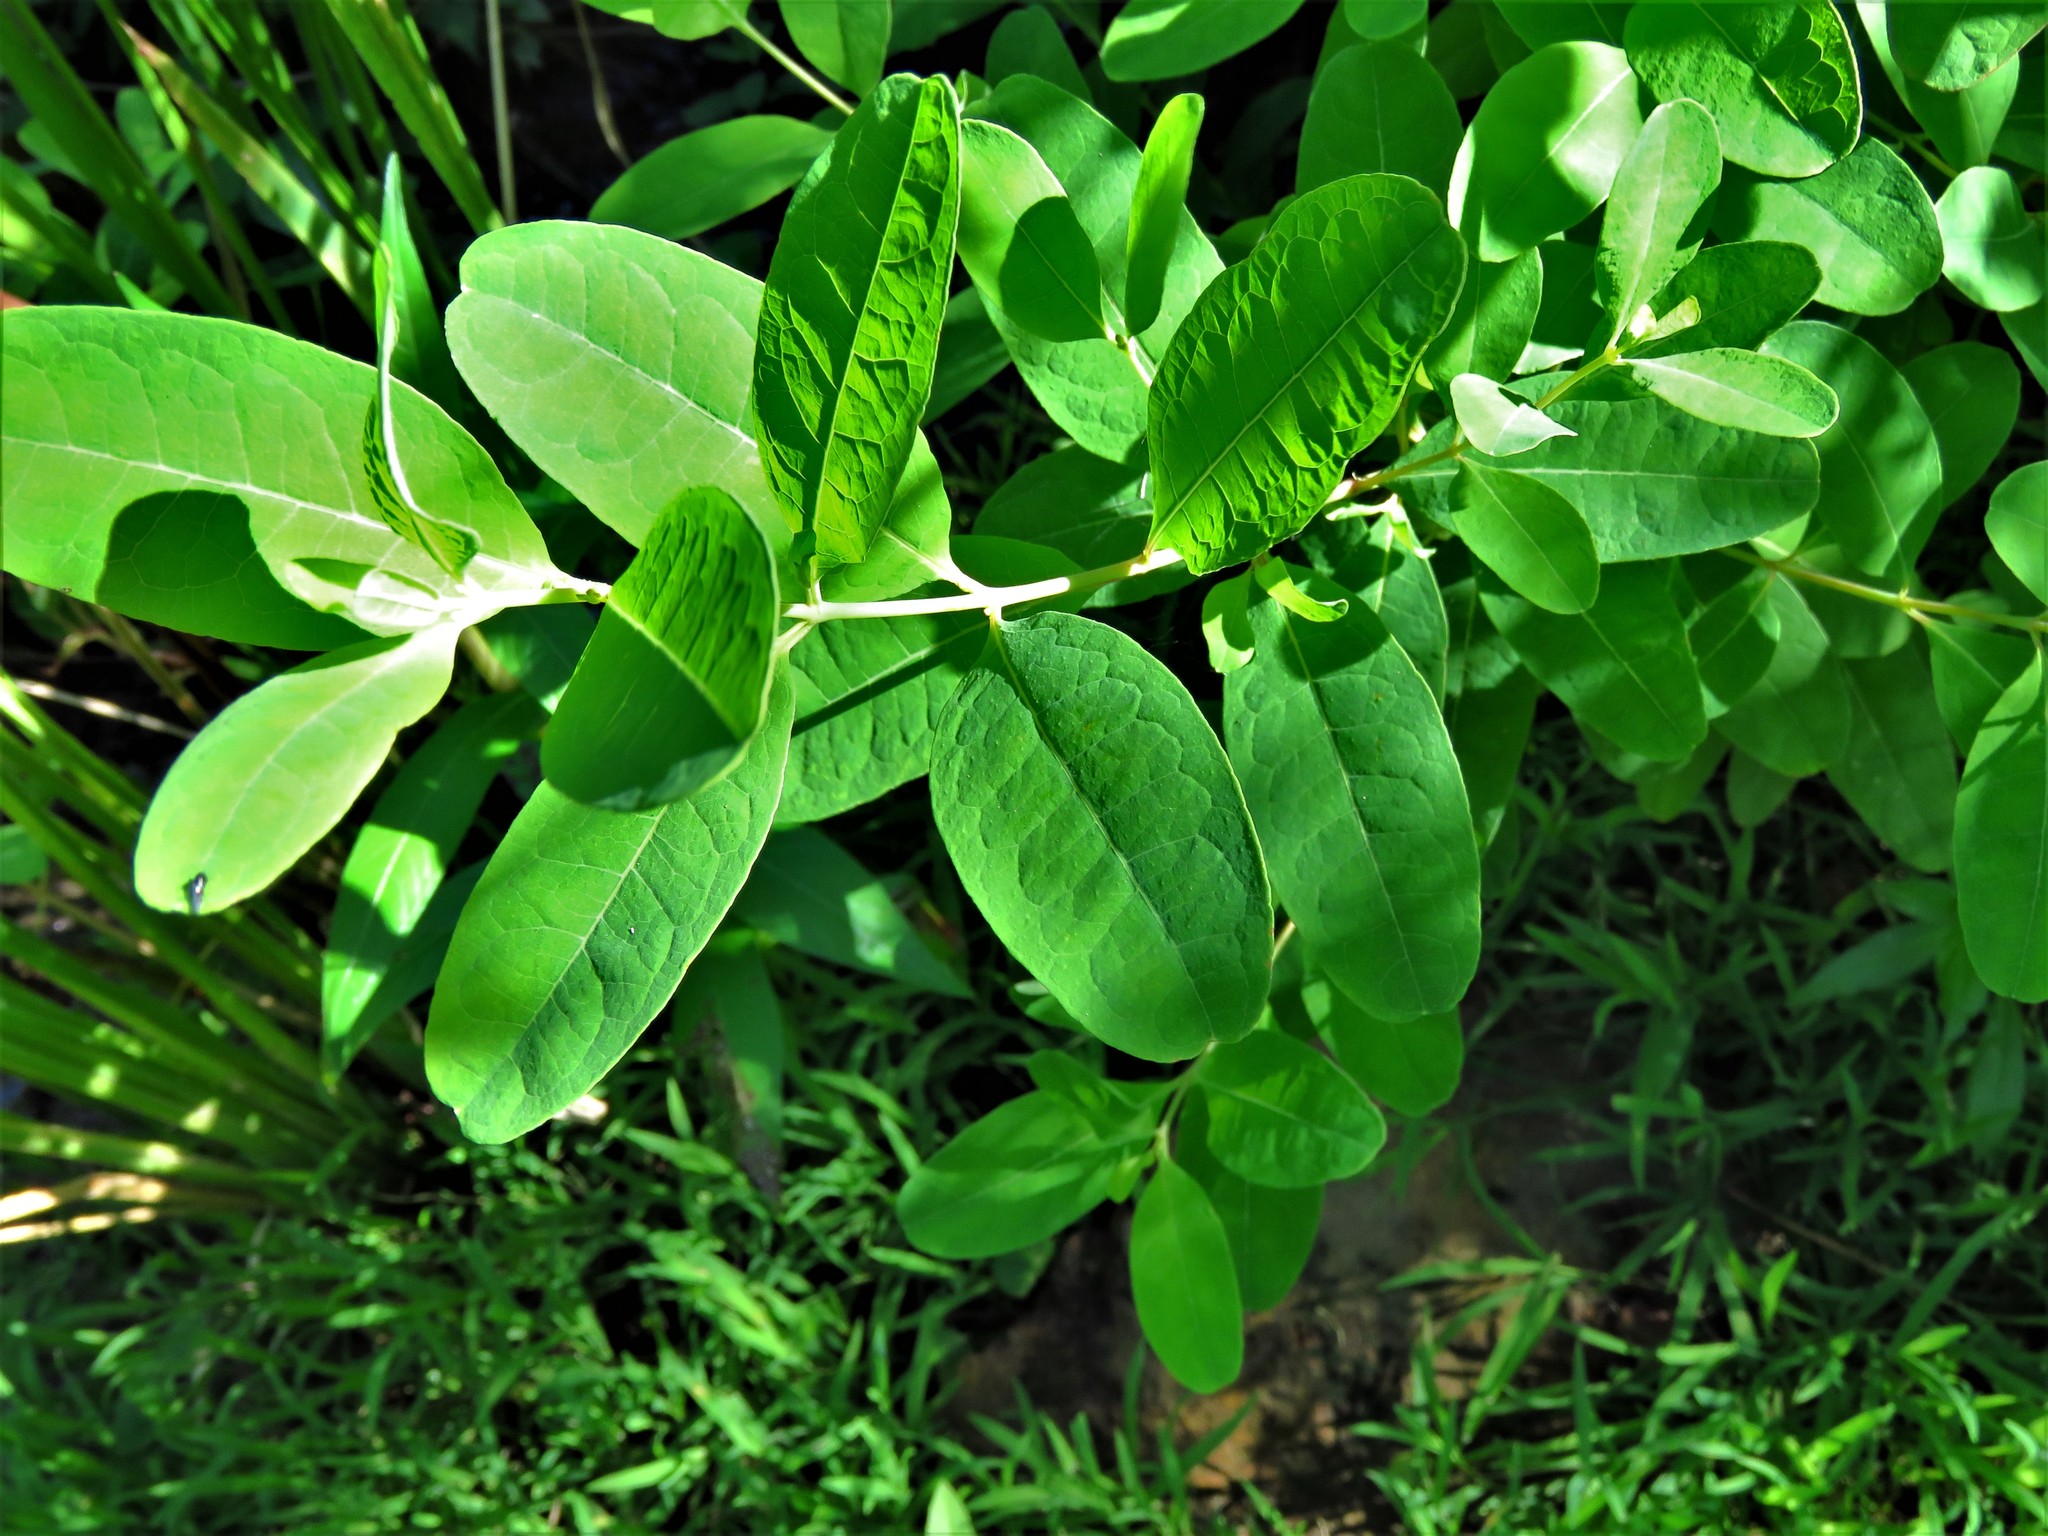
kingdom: Plantae
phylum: Tracheophyta
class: Magnoliopsida
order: Malpighiales
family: Hypericaceae
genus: Triadenum
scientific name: Triadenum walteri
